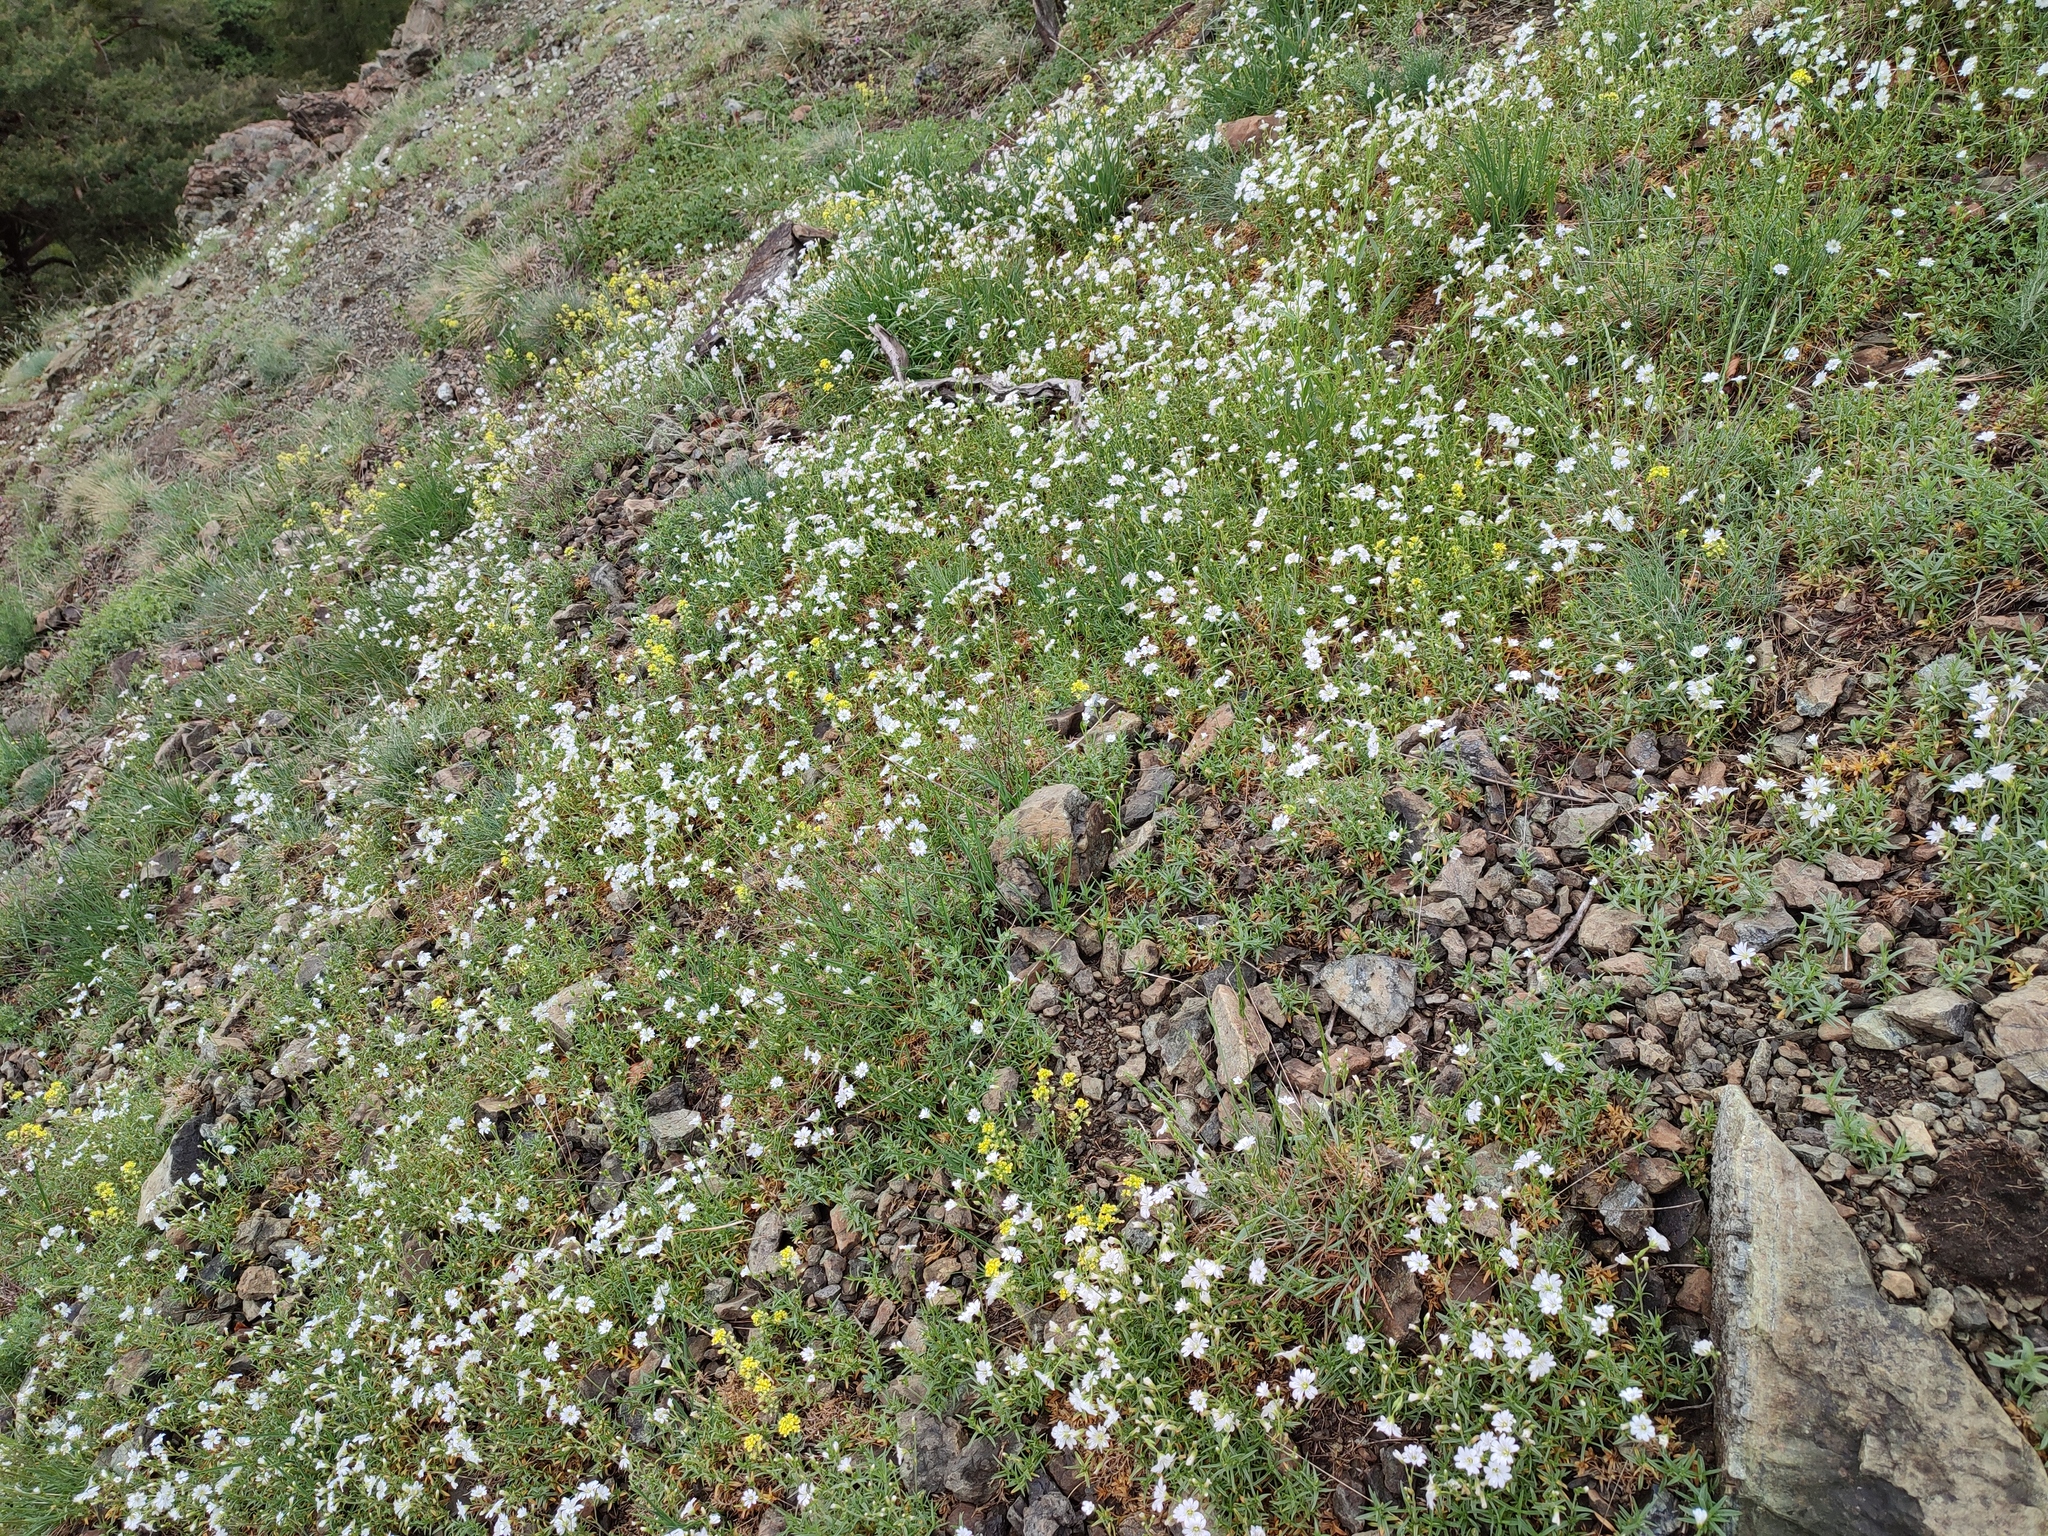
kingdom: Plantae
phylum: Tracheophyta
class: Magnoliopsida
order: Caryophyllales
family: Caryophyllaceae
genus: Cerastium
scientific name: Cerastium arvense
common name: Field mouse-ear
